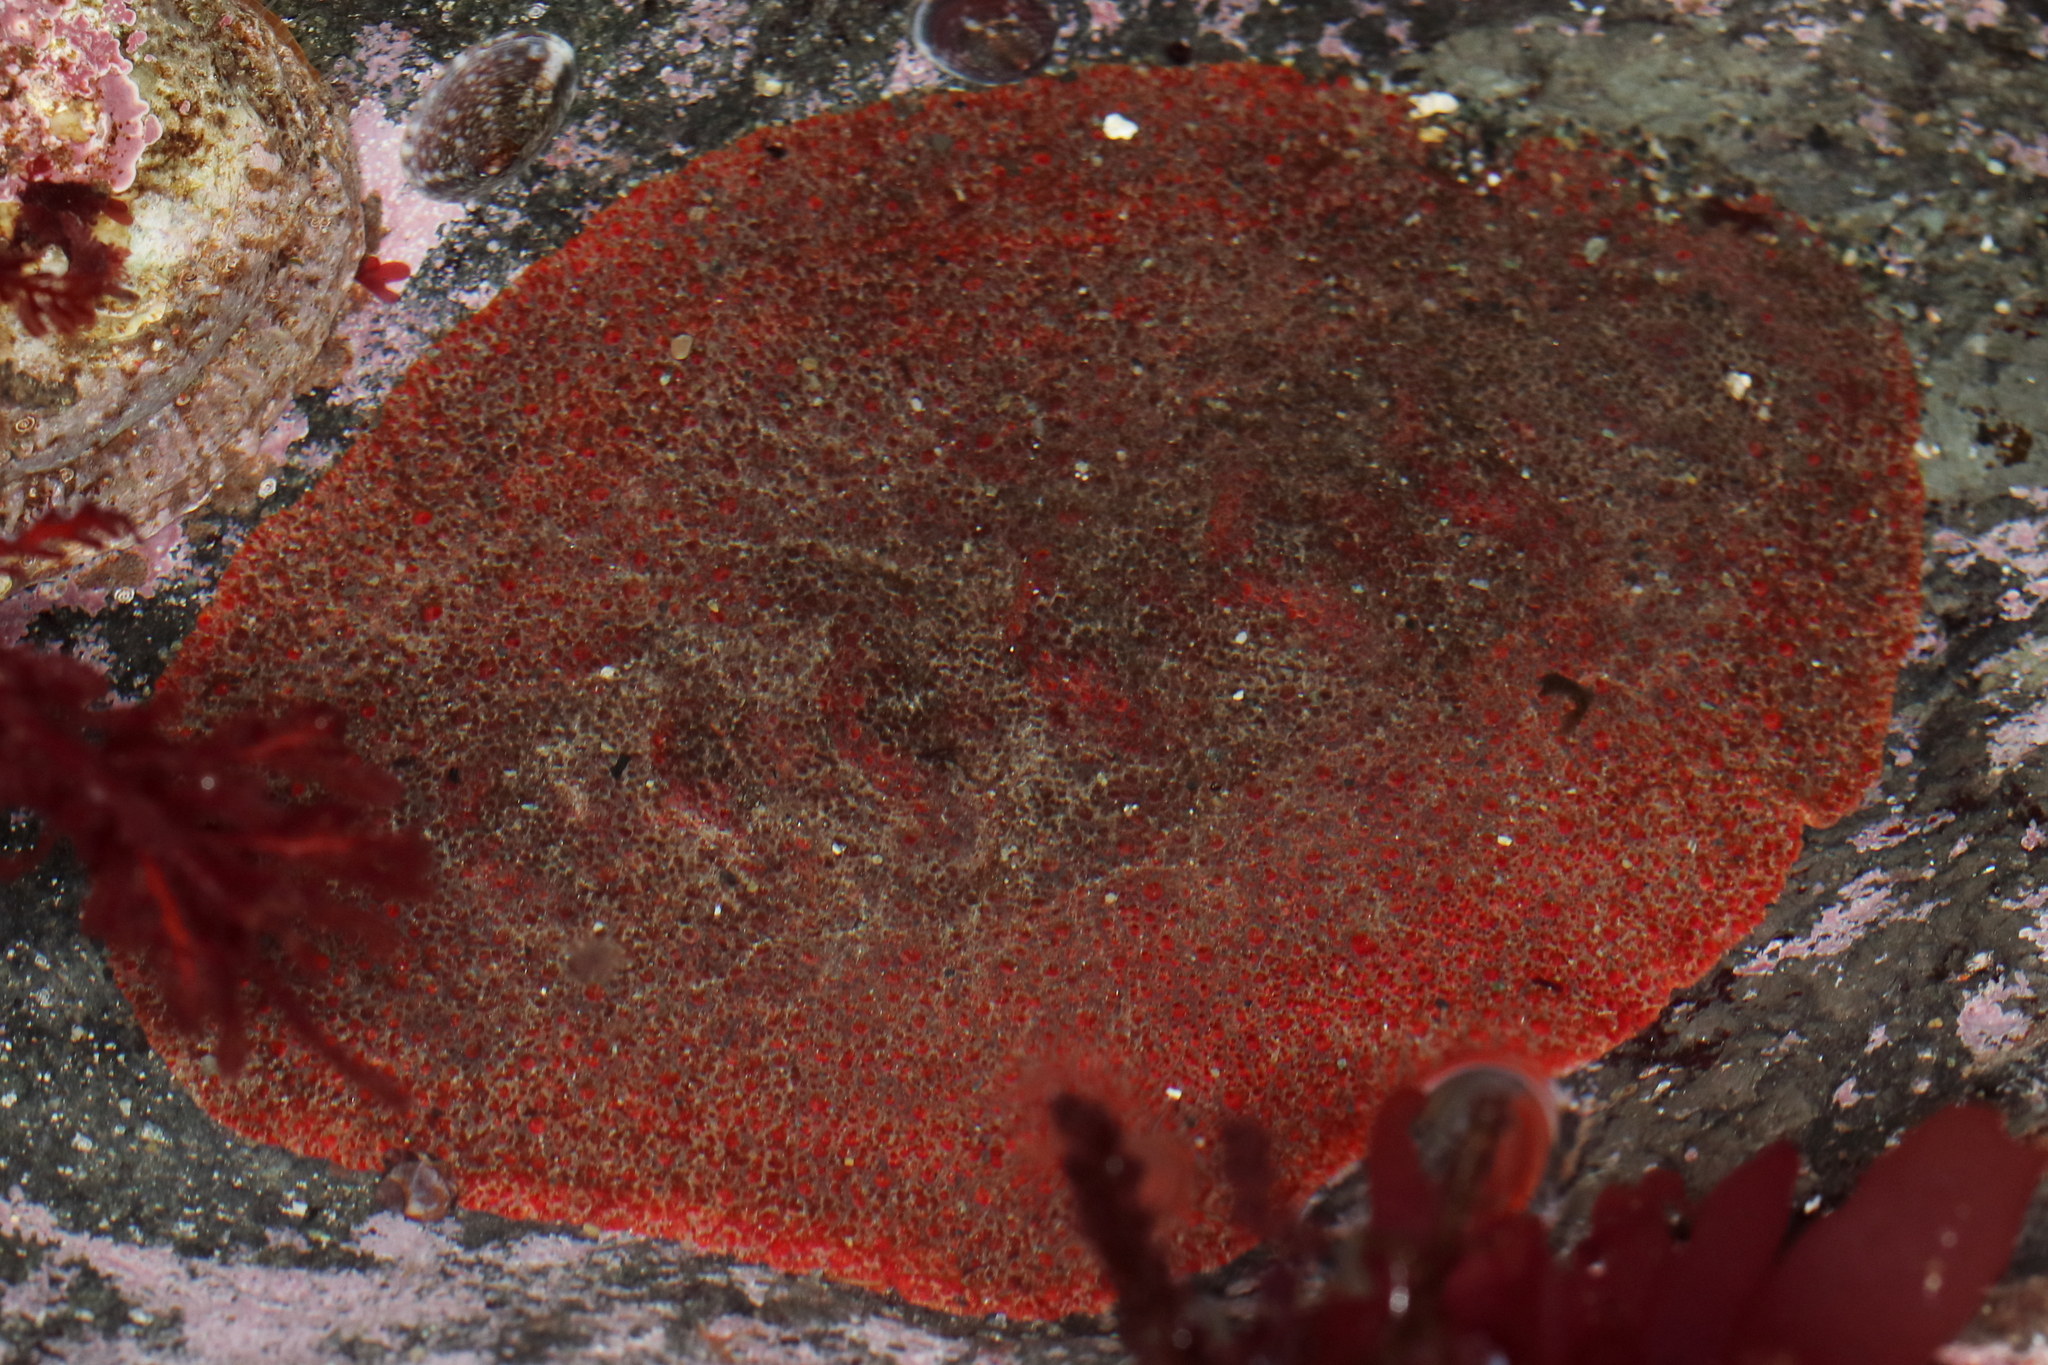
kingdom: Animalia
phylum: Mollusca
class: Polyplacophora
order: Chitonida
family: Acanthochitonidae
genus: Cryptochiton
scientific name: Cryptochiton stelleri
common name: Giant pacific chiton
